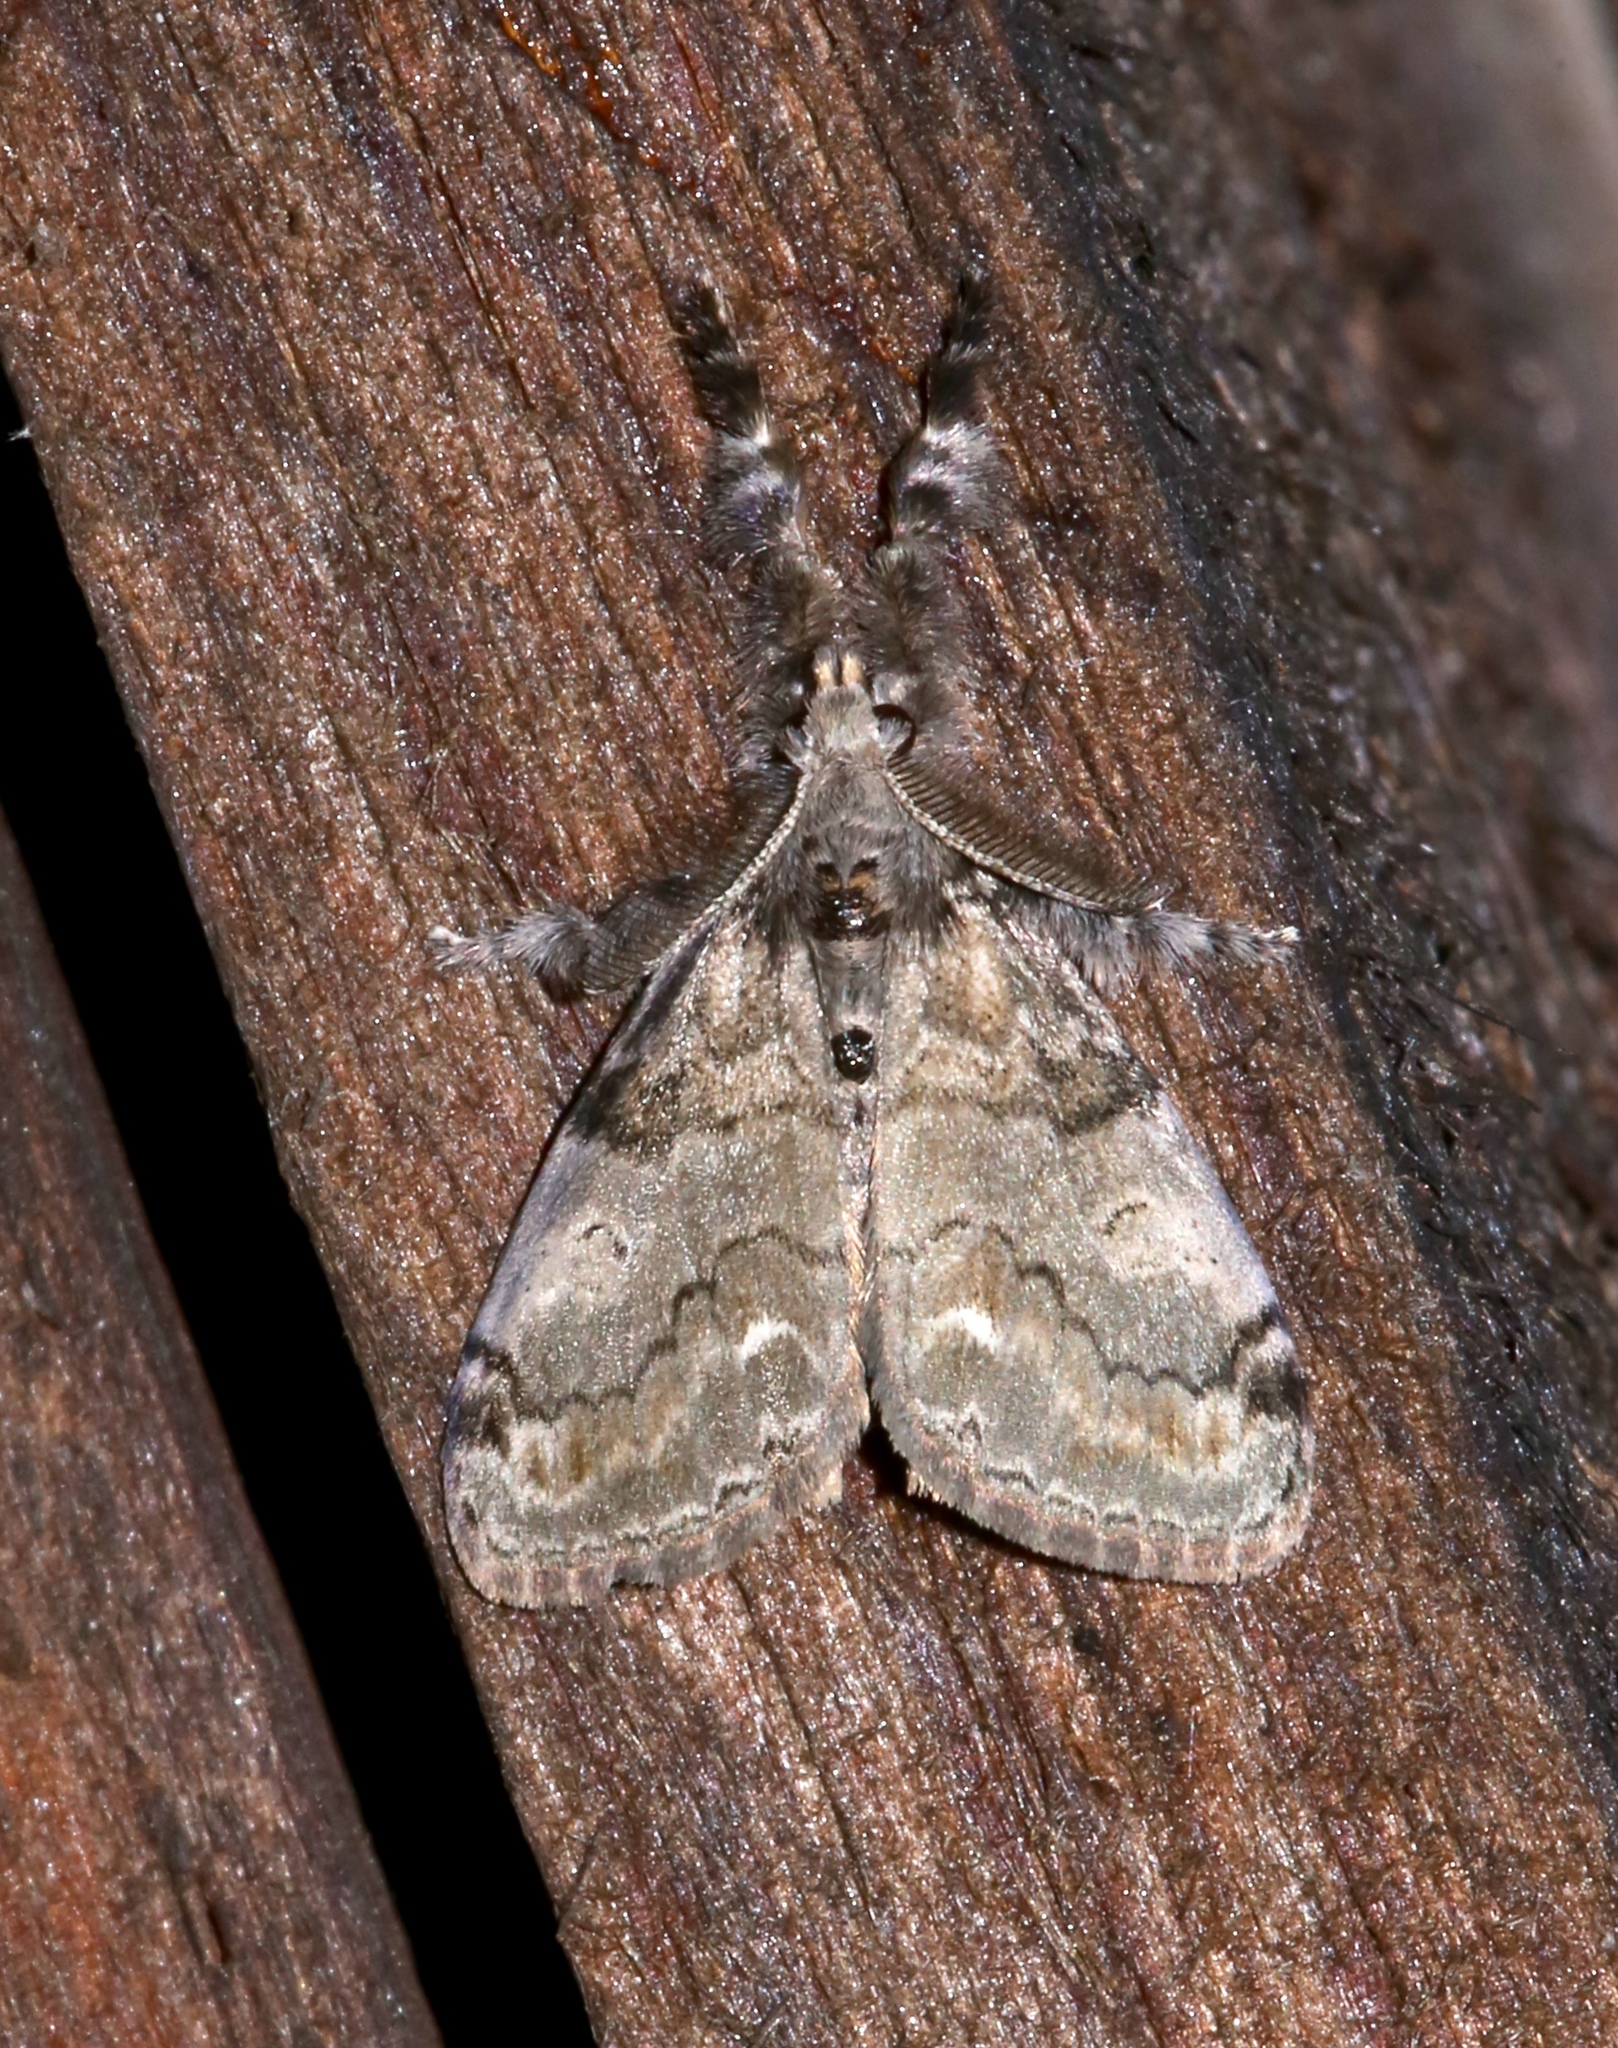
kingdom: Animalia
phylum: Arthropoda
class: Insecta
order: Lepidoptera
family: Erebidae
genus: Orgyia
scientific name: Orgyia leucostigma
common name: White-marked tussock moth
